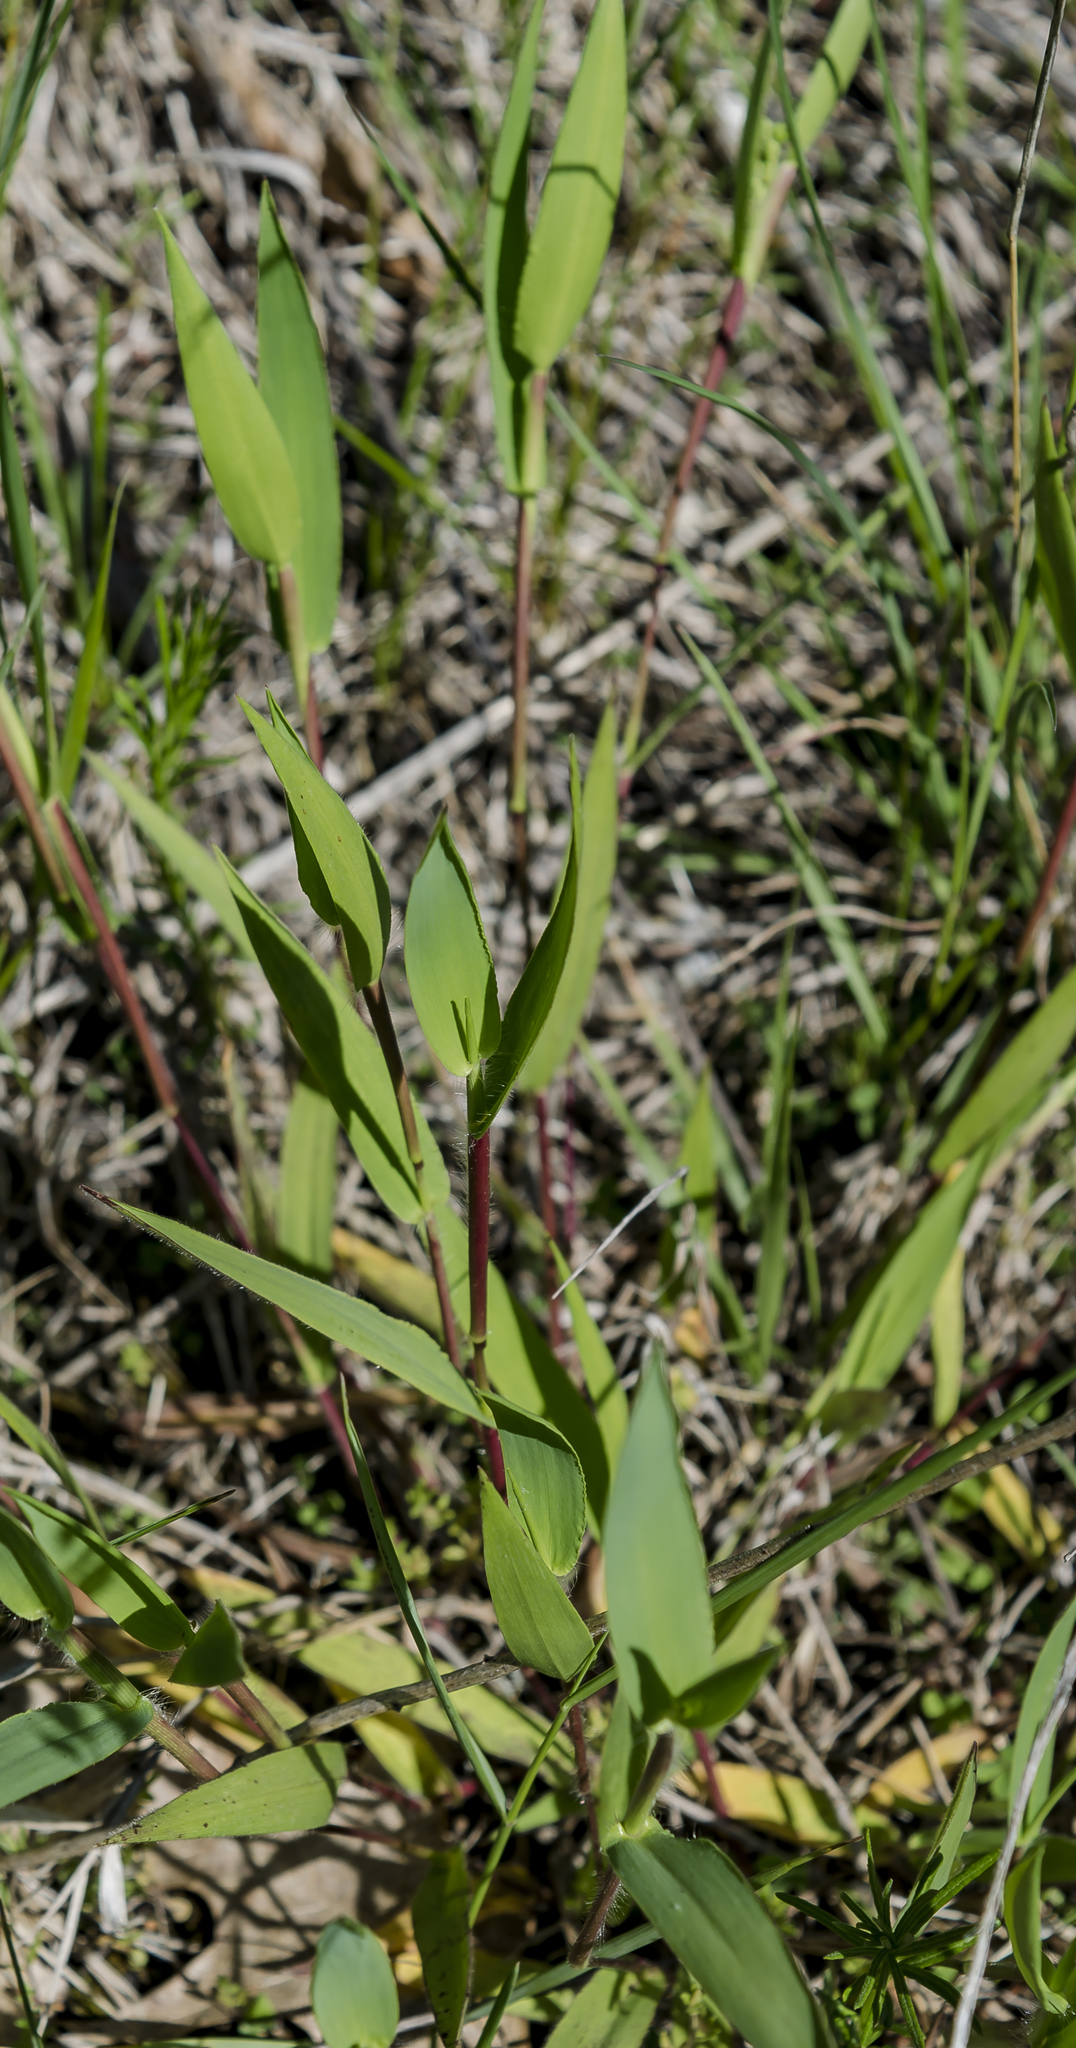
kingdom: Plantae
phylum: Tracheophyta
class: Liliopsida
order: Poales
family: Poaceae
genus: Dichanthelium
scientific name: Dichanthelium oligosanthes
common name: Few-anther obscuregrass
